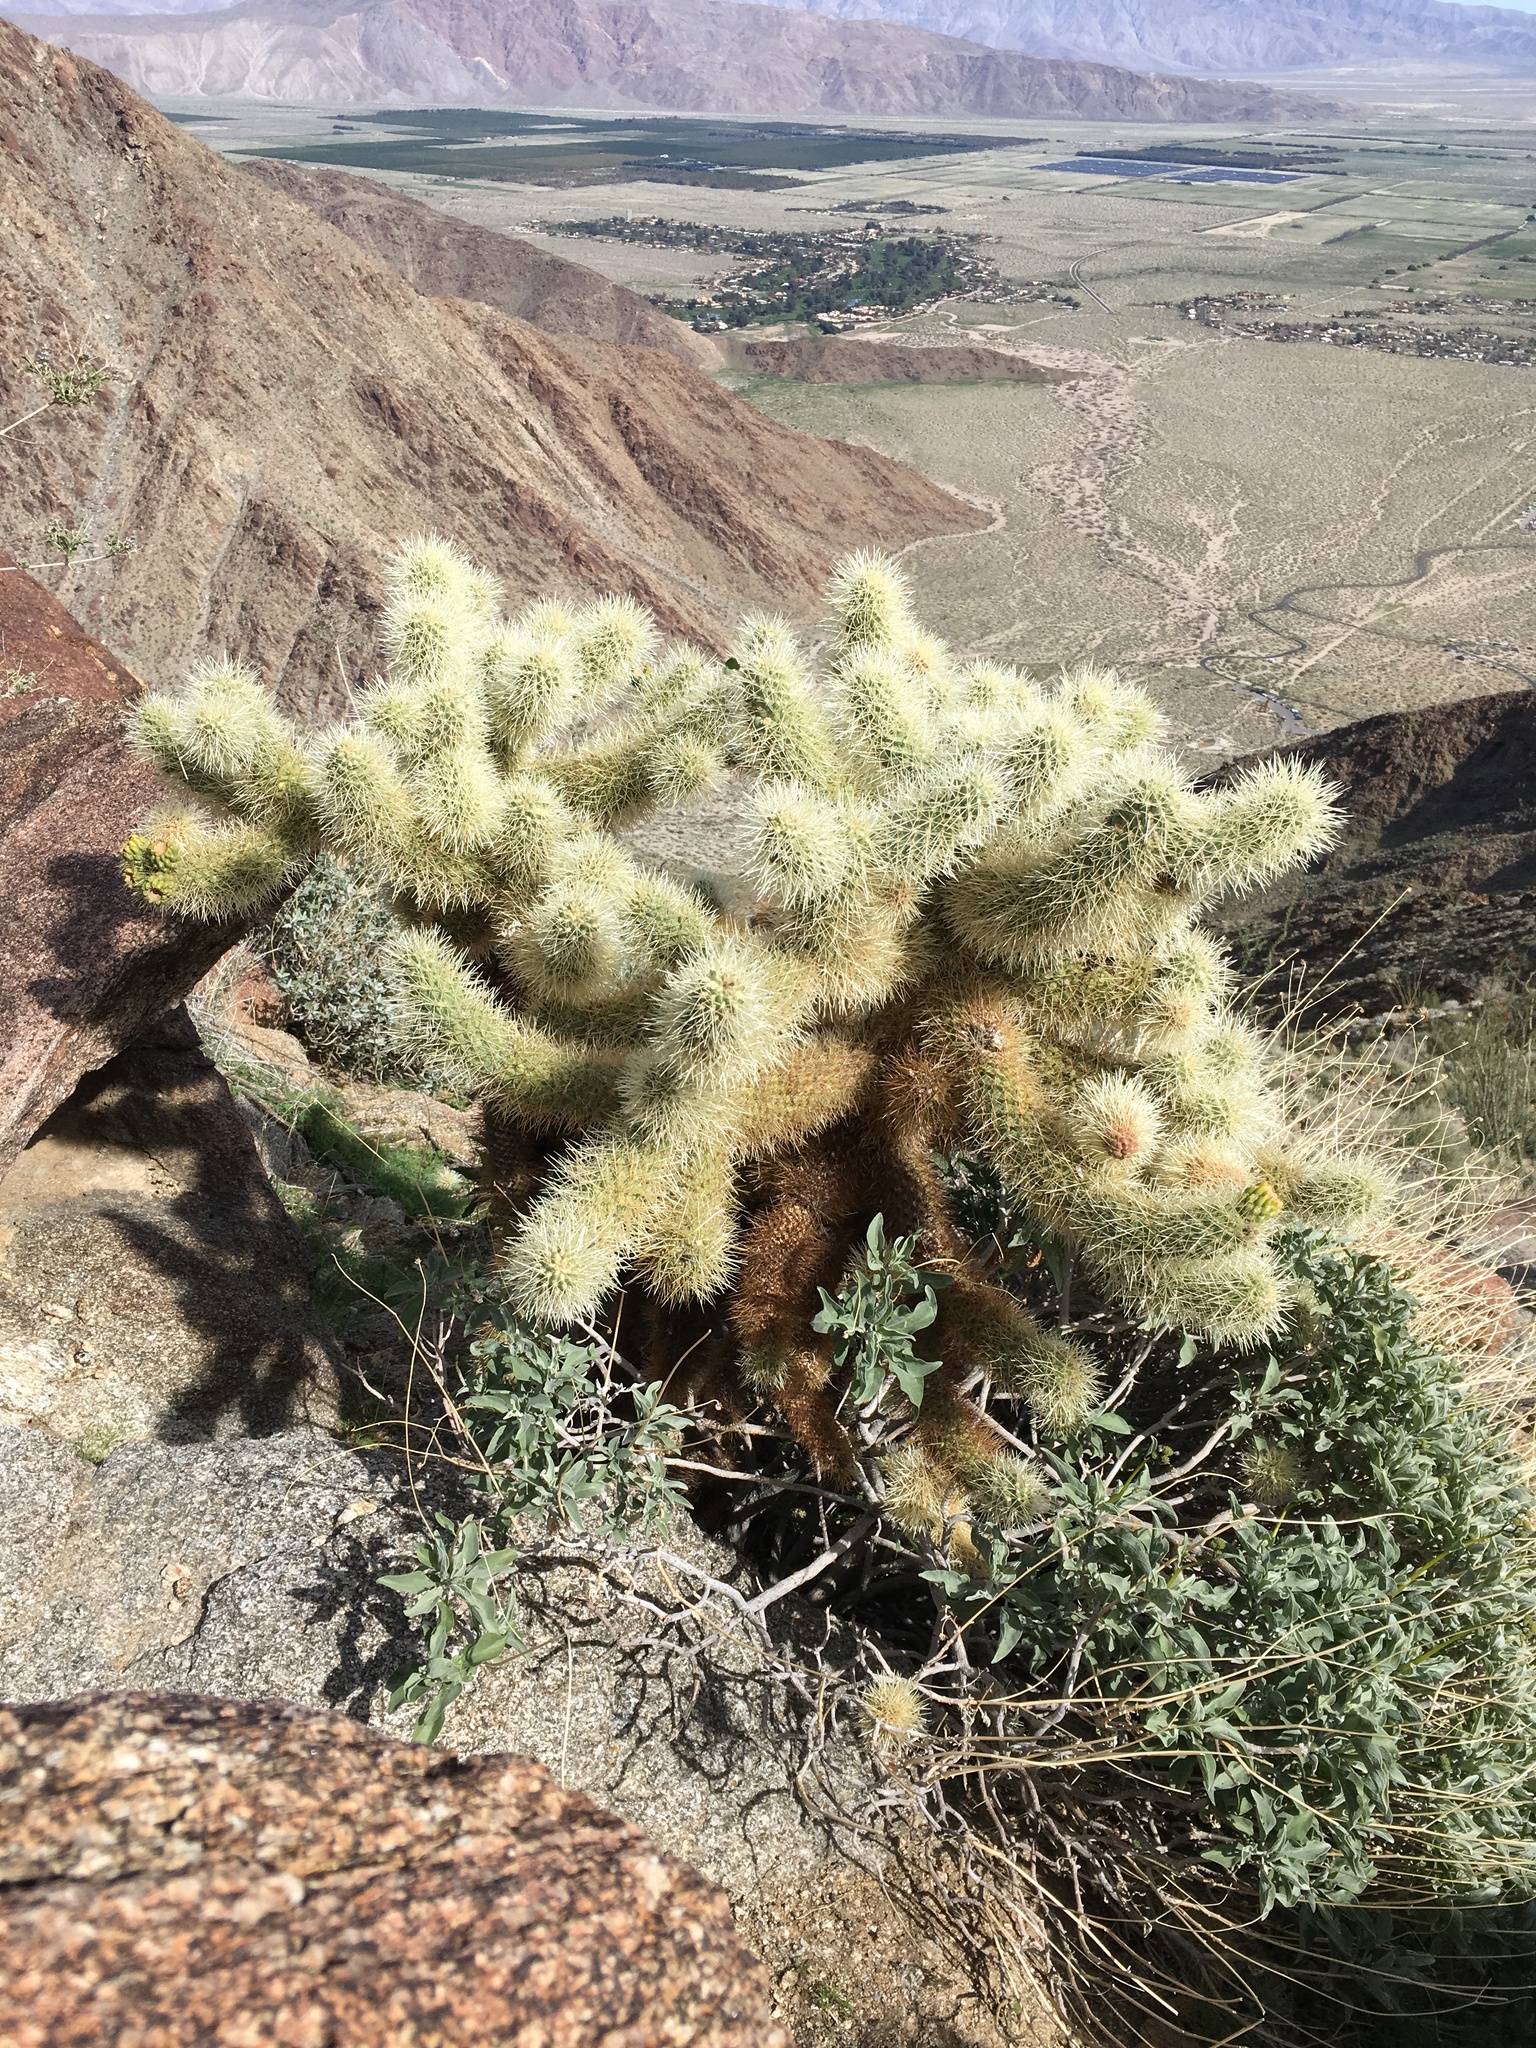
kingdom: Plantae
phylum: Tracheophyta
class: Magnoliopsida
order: Caryophyllales
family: Cactaceae
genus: Cylindropuntia
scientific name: Cylindropuntia fosbergii
